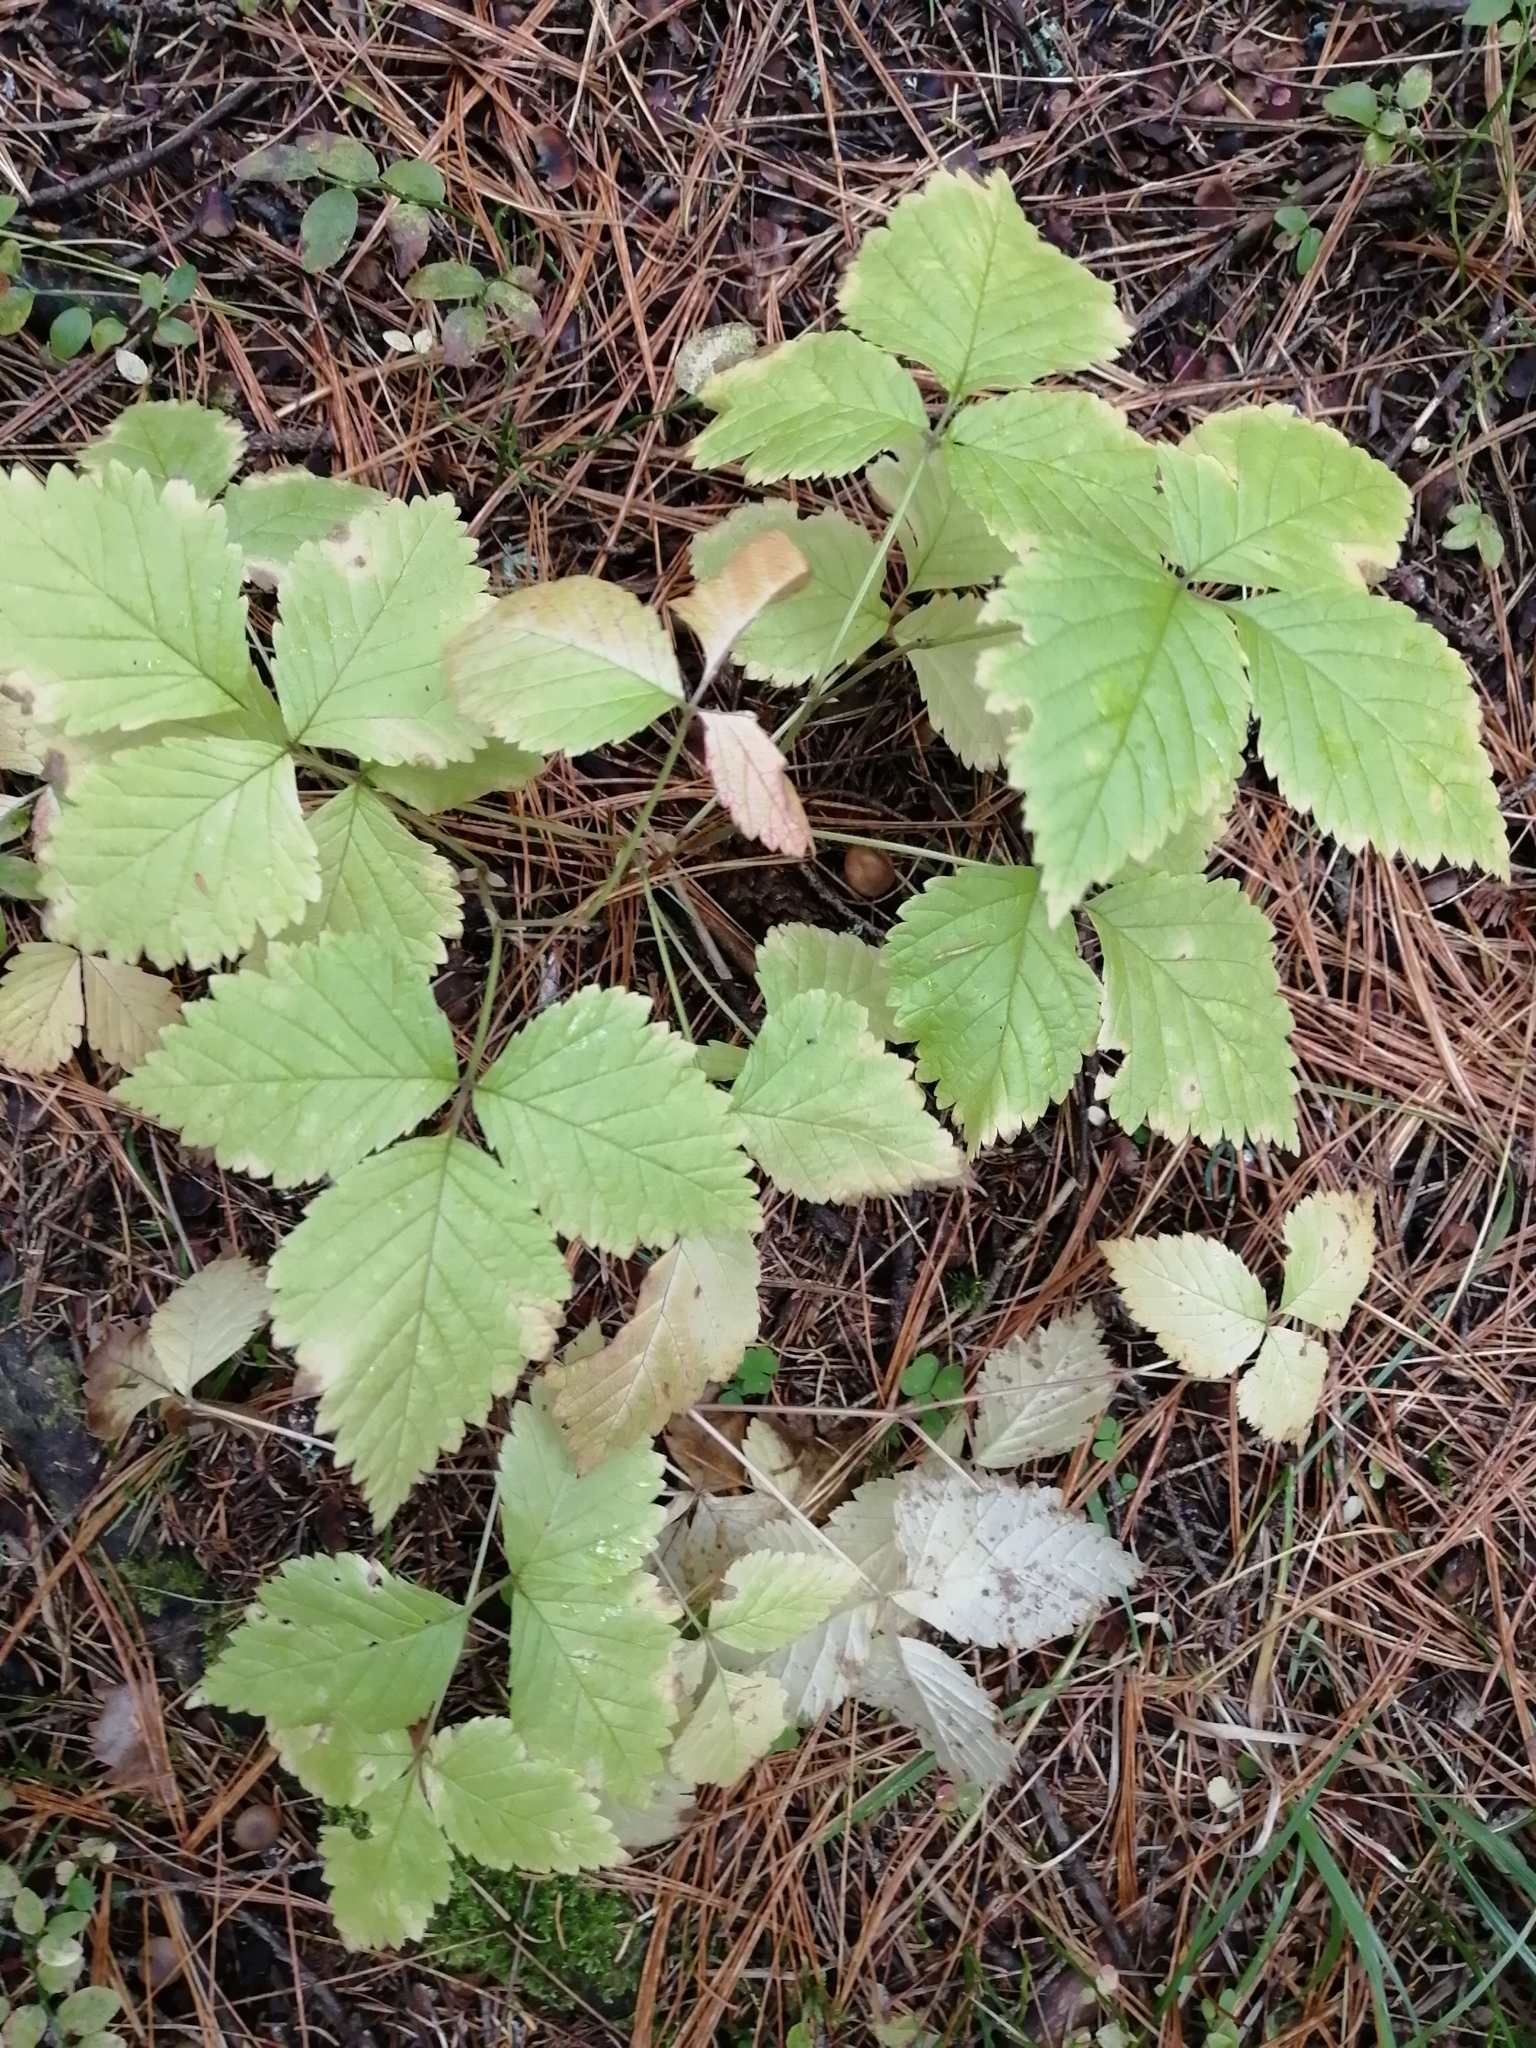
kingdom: Plantae
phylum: Tracheophyta
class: Magnoliopsida
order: Rosales
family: Rosaceae
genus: Rubus
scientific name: Rubus saxatilis
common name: Stone bramble
